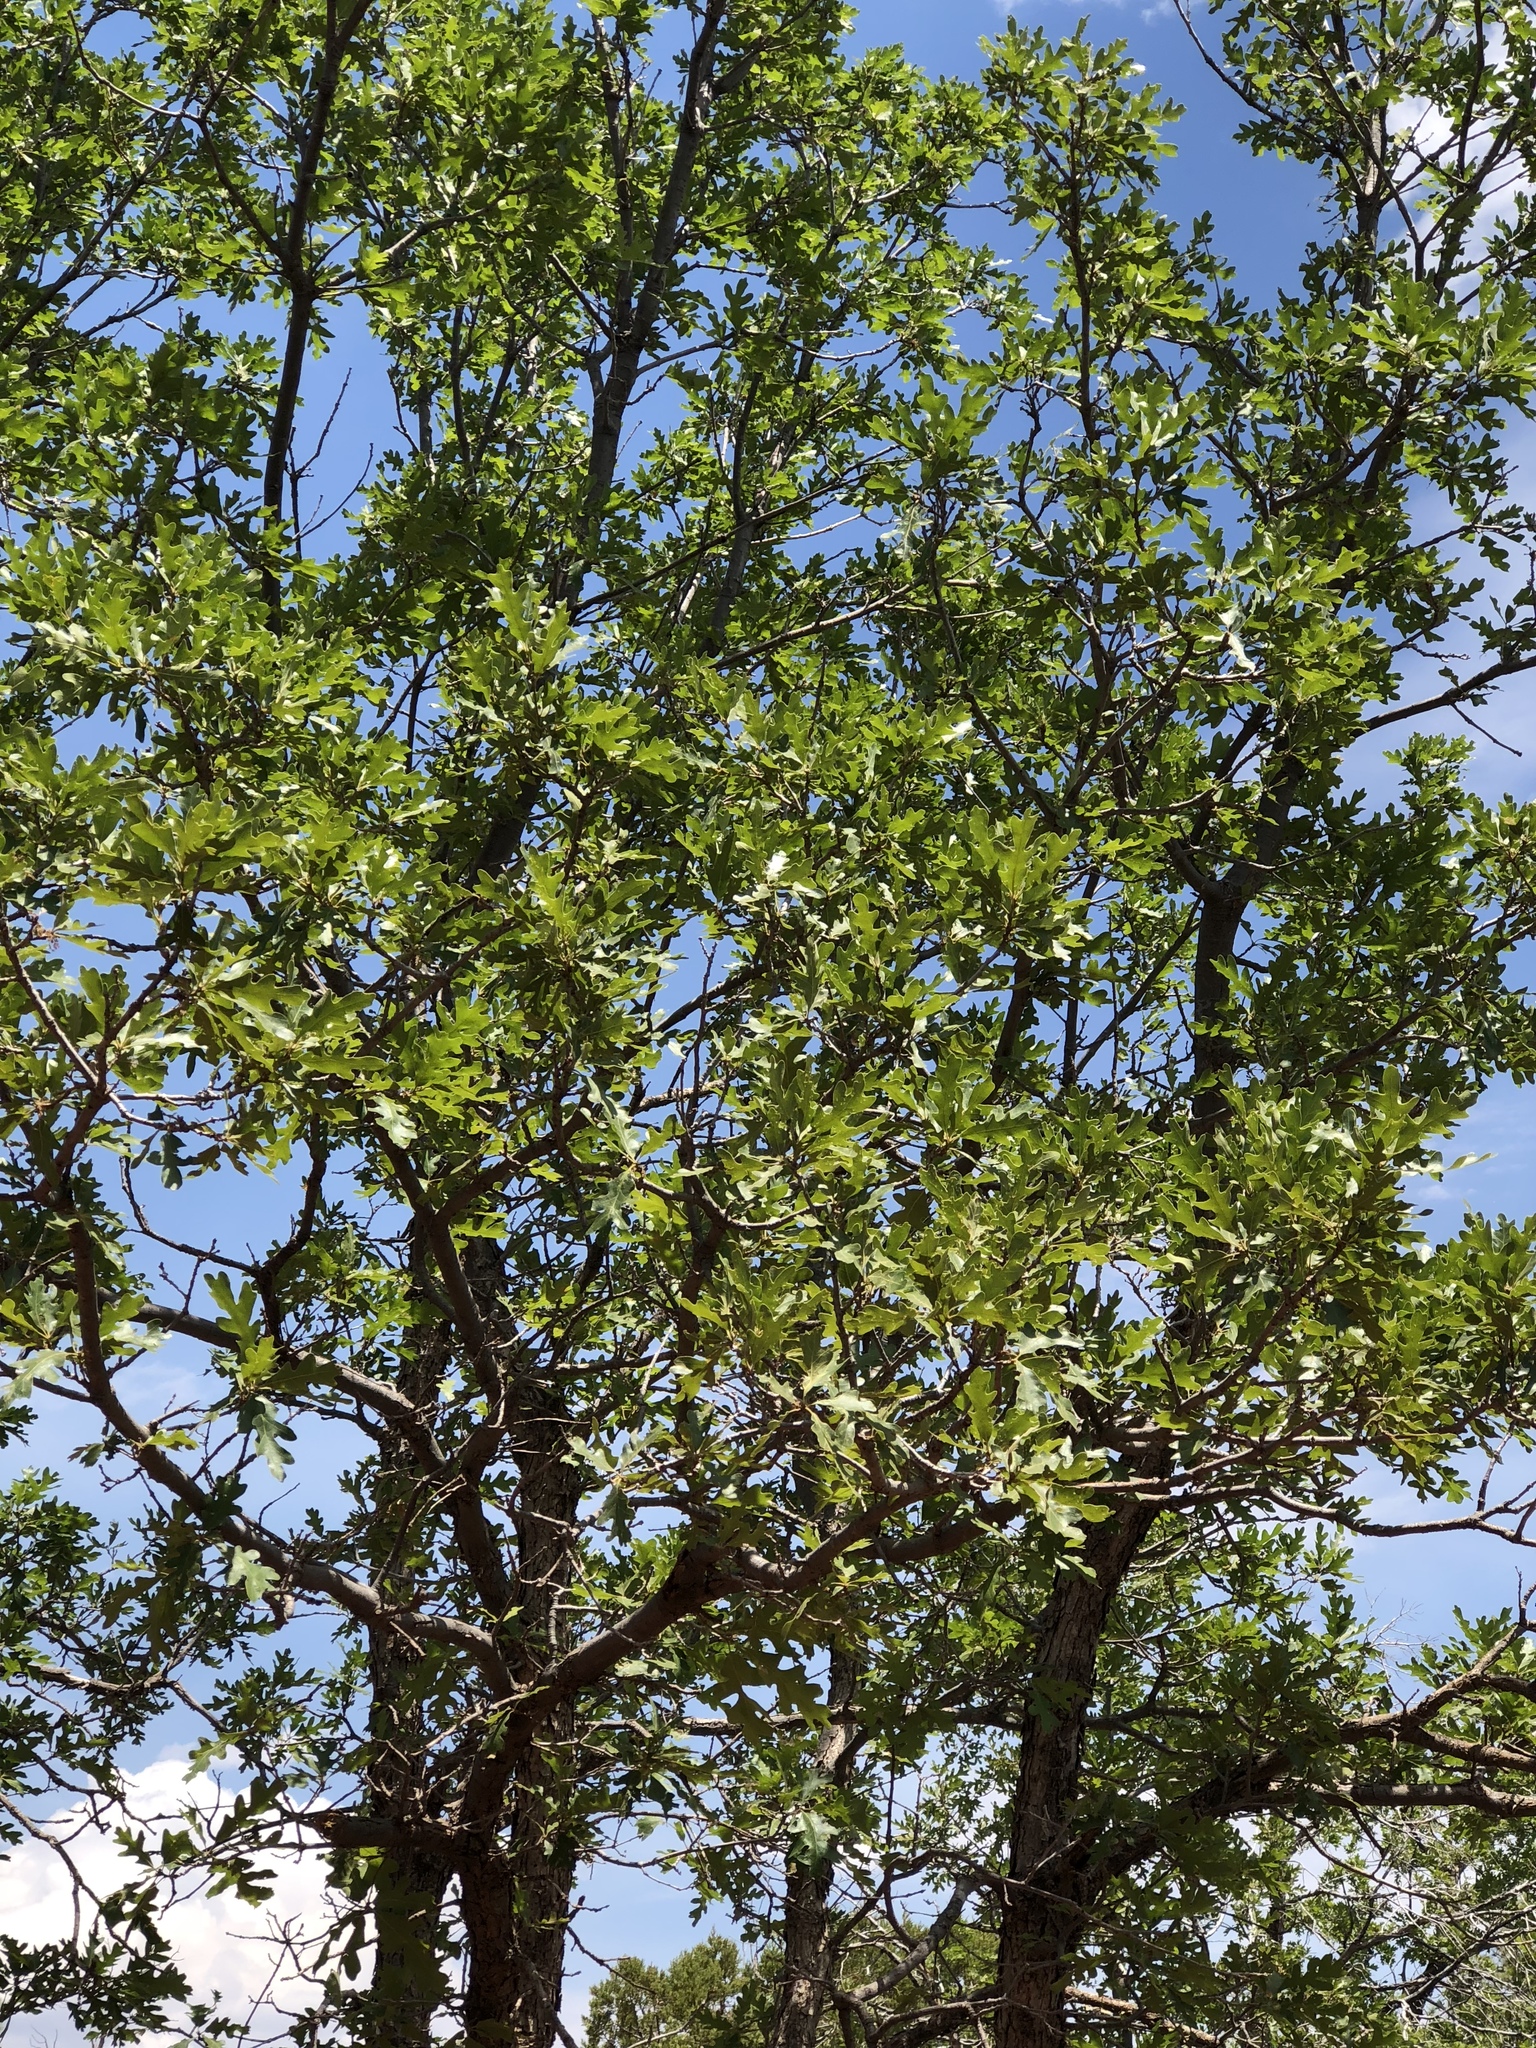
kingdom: Plantae
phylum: Tracheophyta
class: Magnoliopsida
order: Fagales
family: Fagaceae
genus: Quercus
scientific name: Quercus gambelii
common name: Gambel oak
